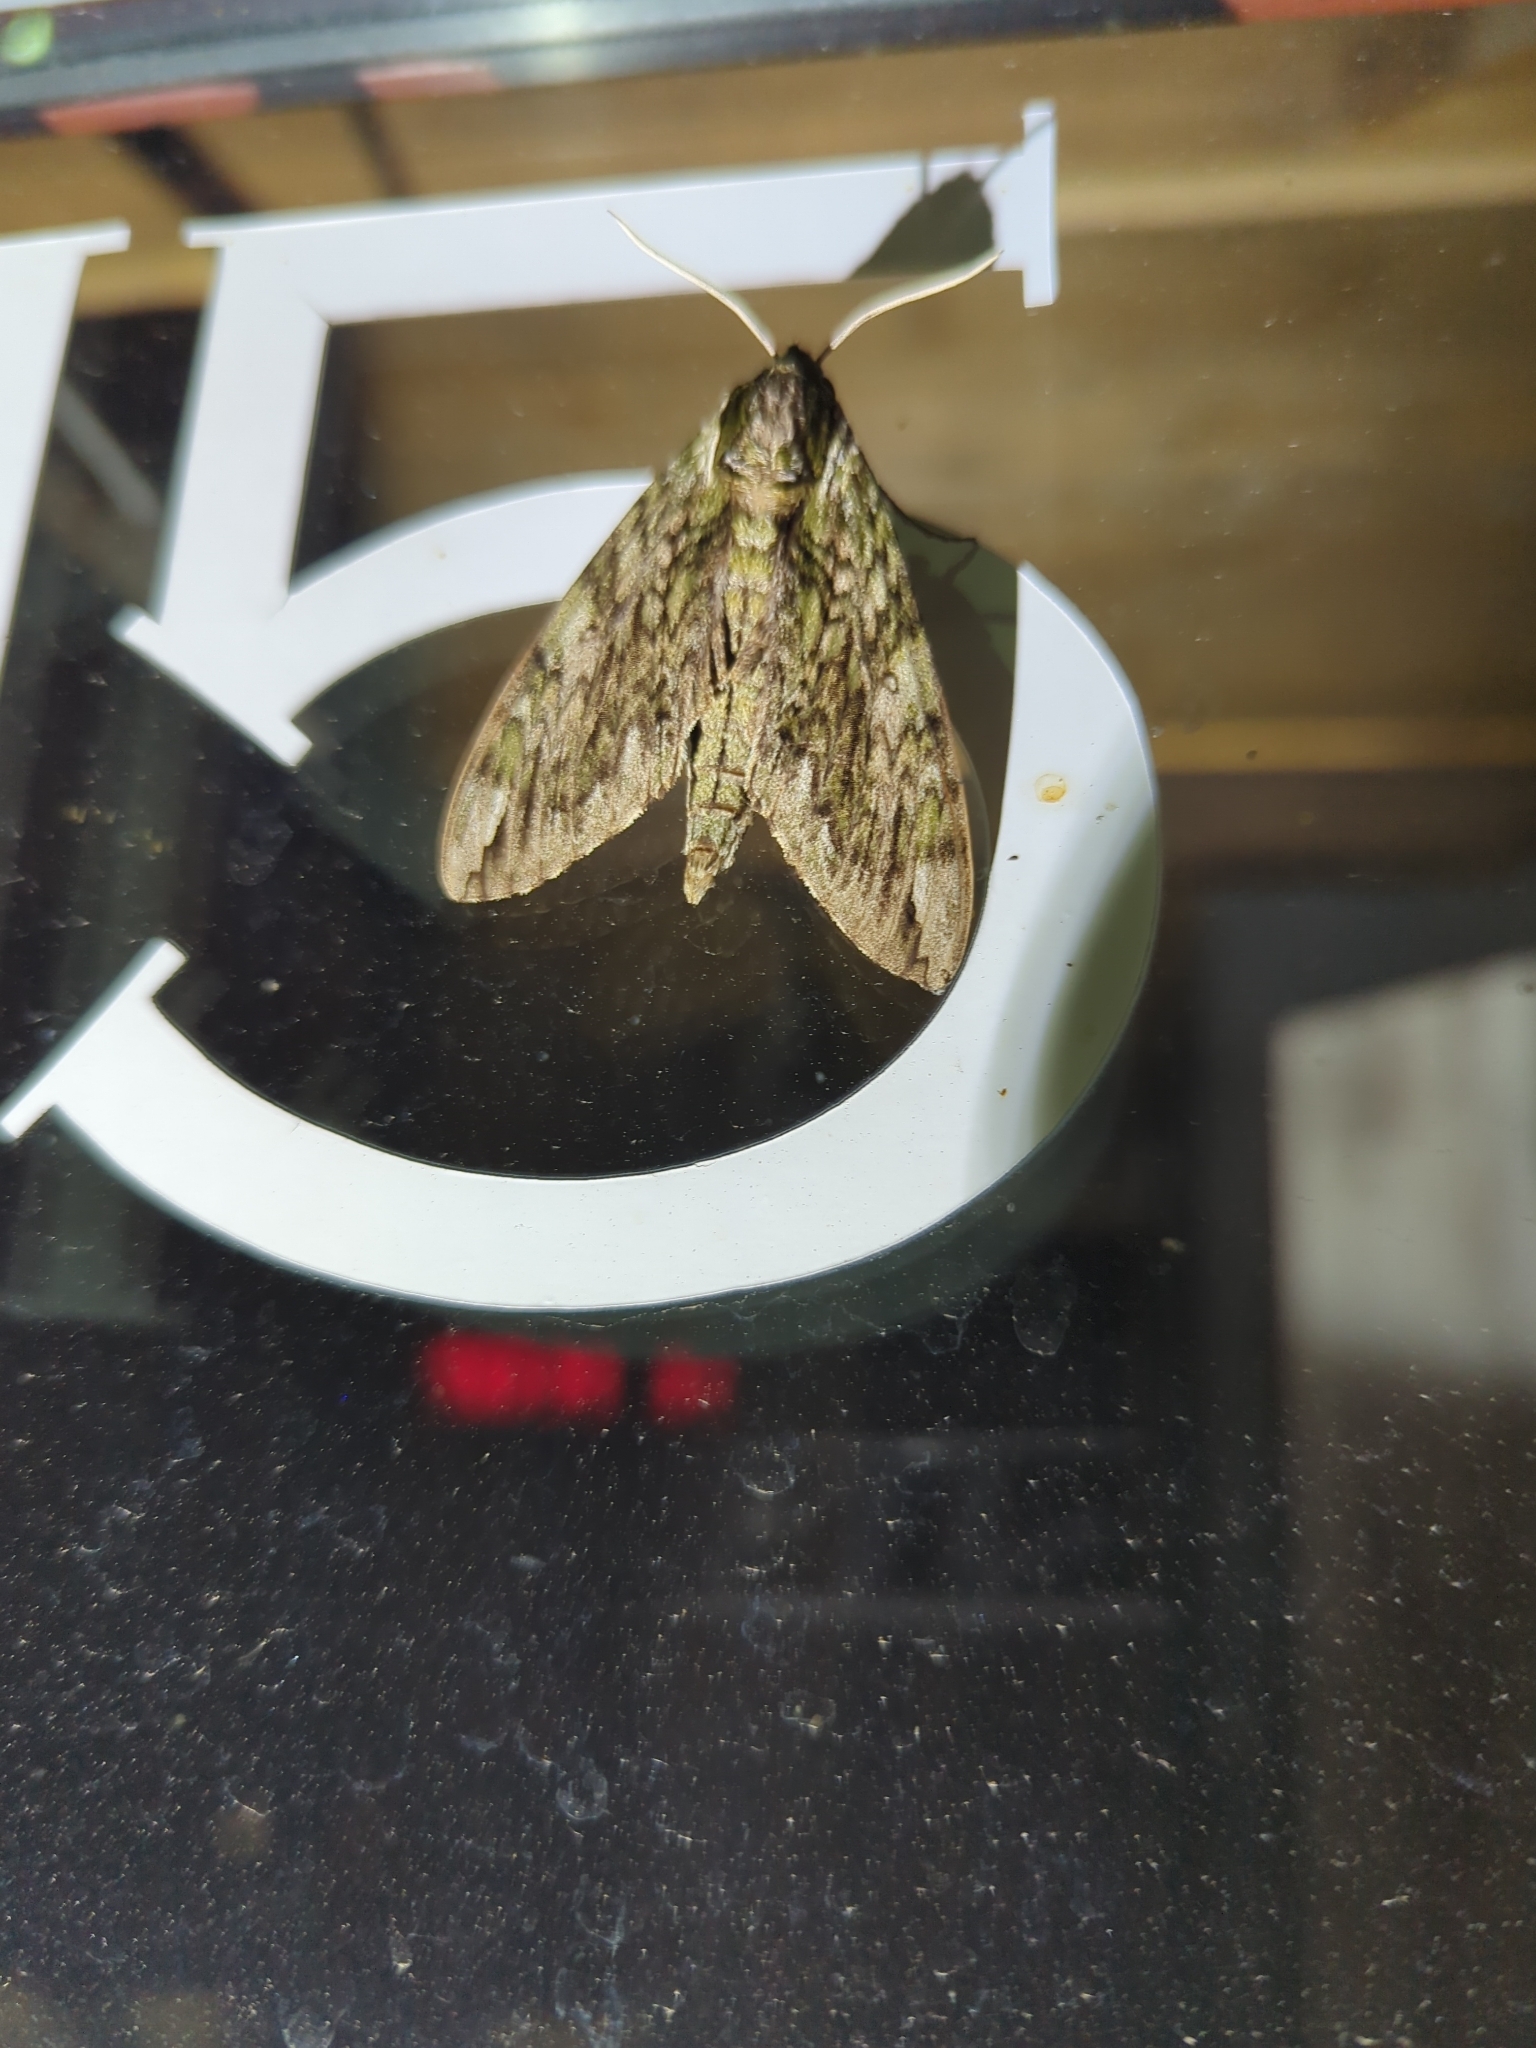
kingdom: Animalia
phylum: Arthropoda
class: Insecta
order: Lepidoptera
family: Sphingidae
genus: Ceratomia
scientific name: Ceratomia hageni
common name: Hagen's sphinx
